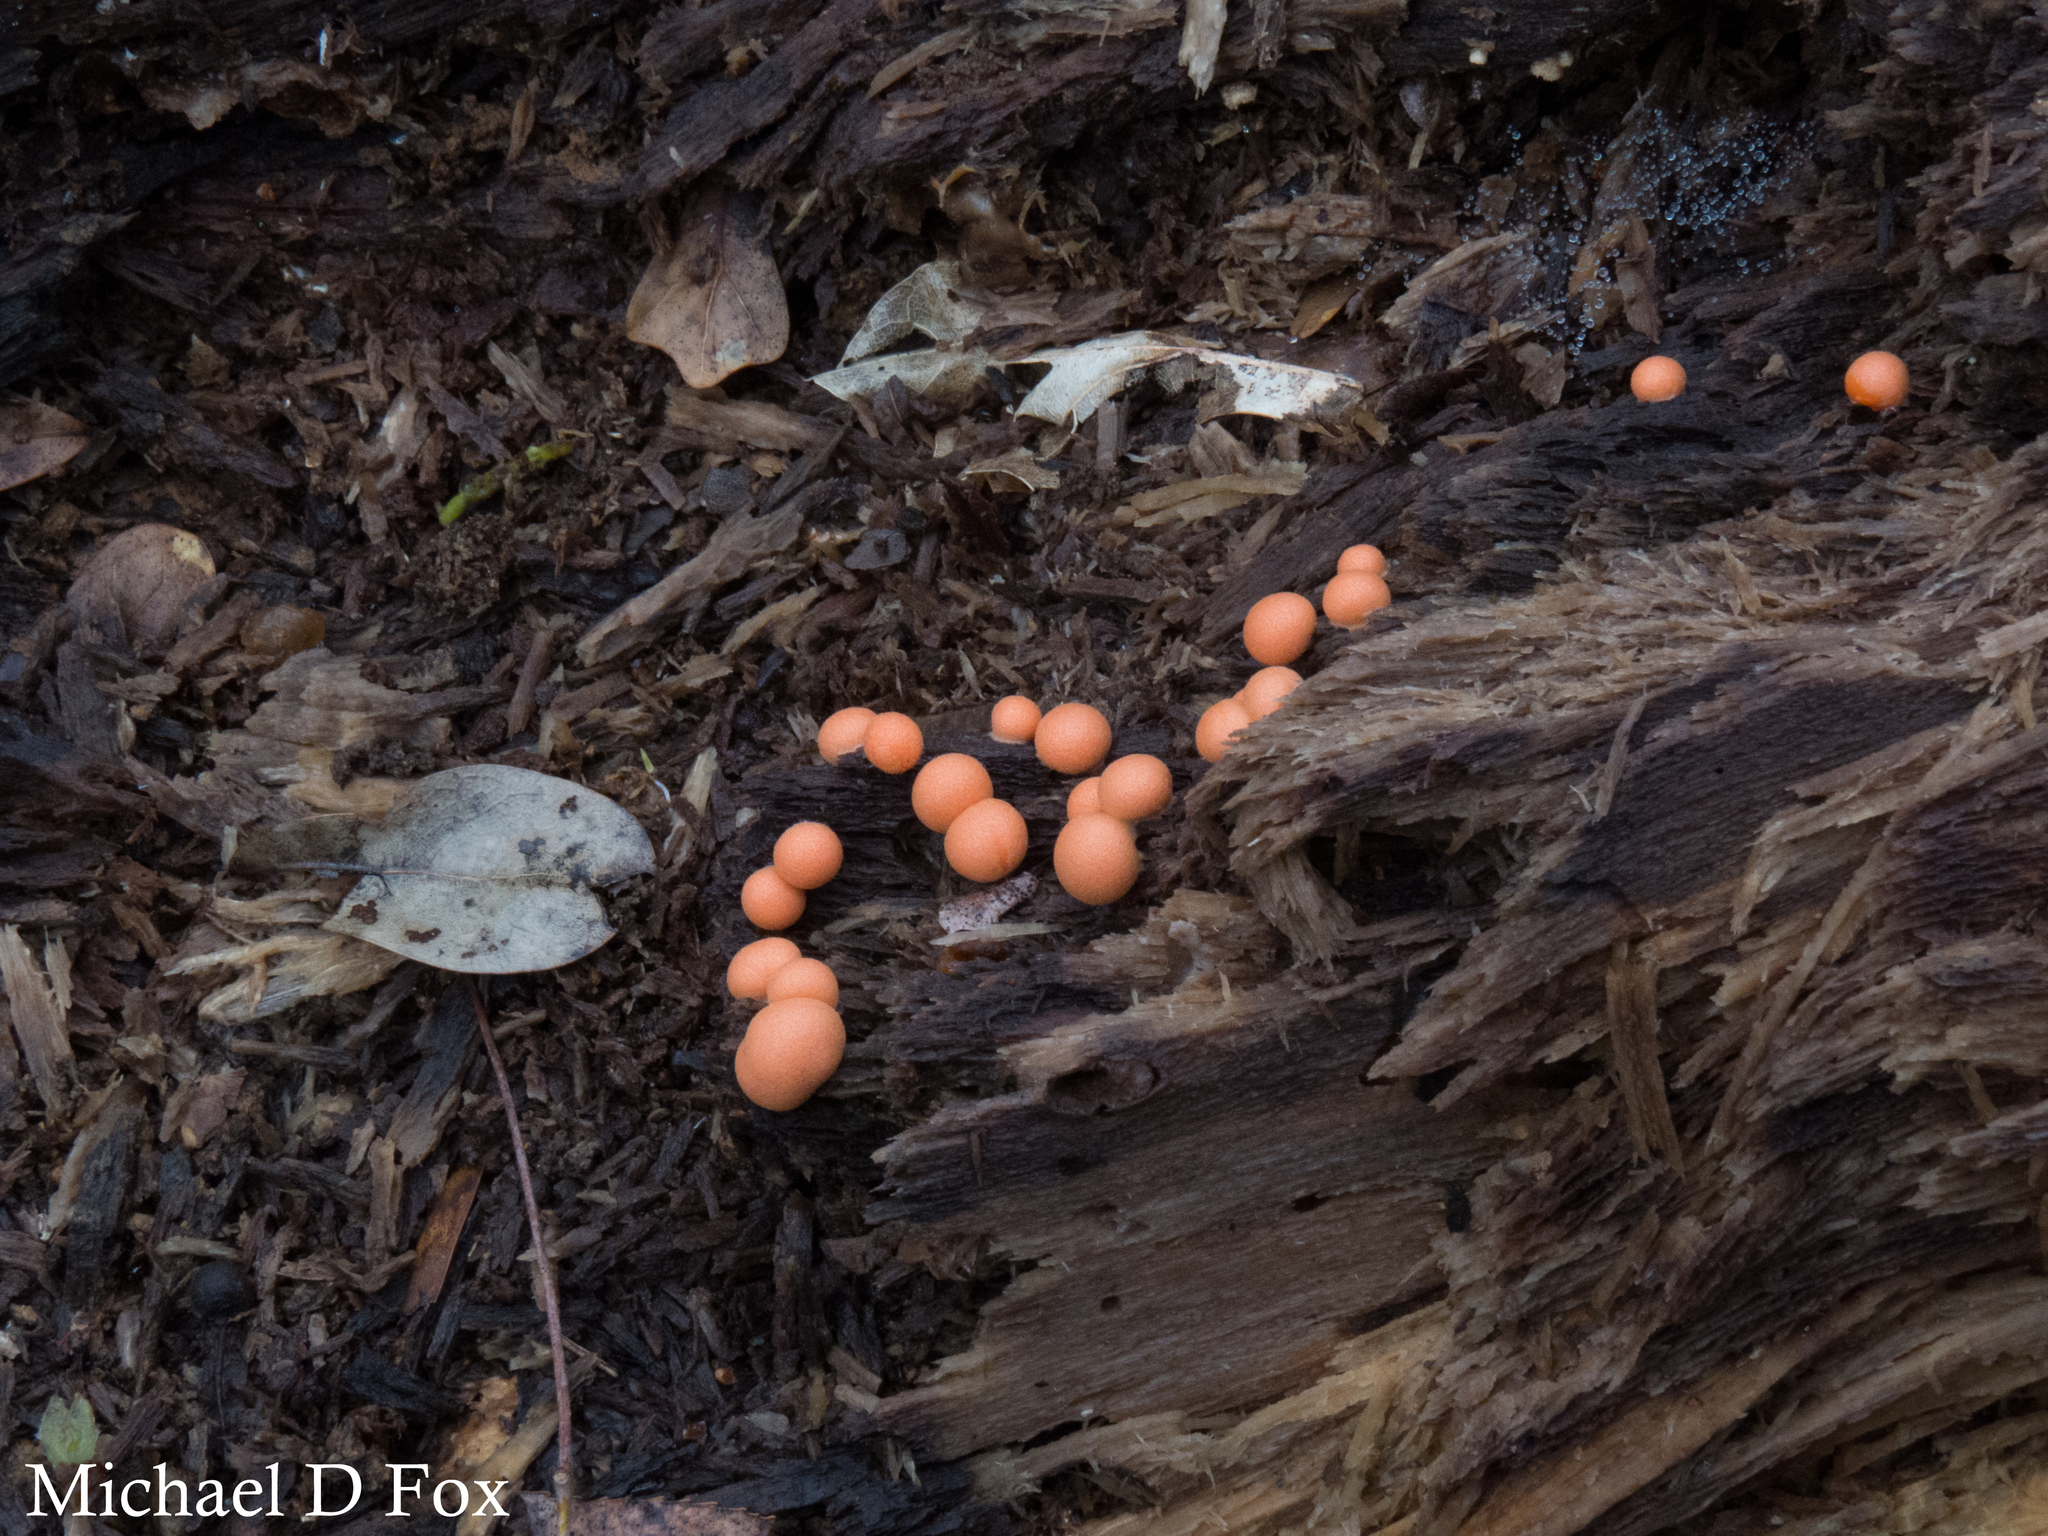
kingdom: Protozoa
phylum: Mycetozoa
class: Myxomycetes
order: Cribrariales
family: Tubiferaceae
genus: Lycogala
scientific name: Lycogala epidendrum
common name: Wolf's milk
